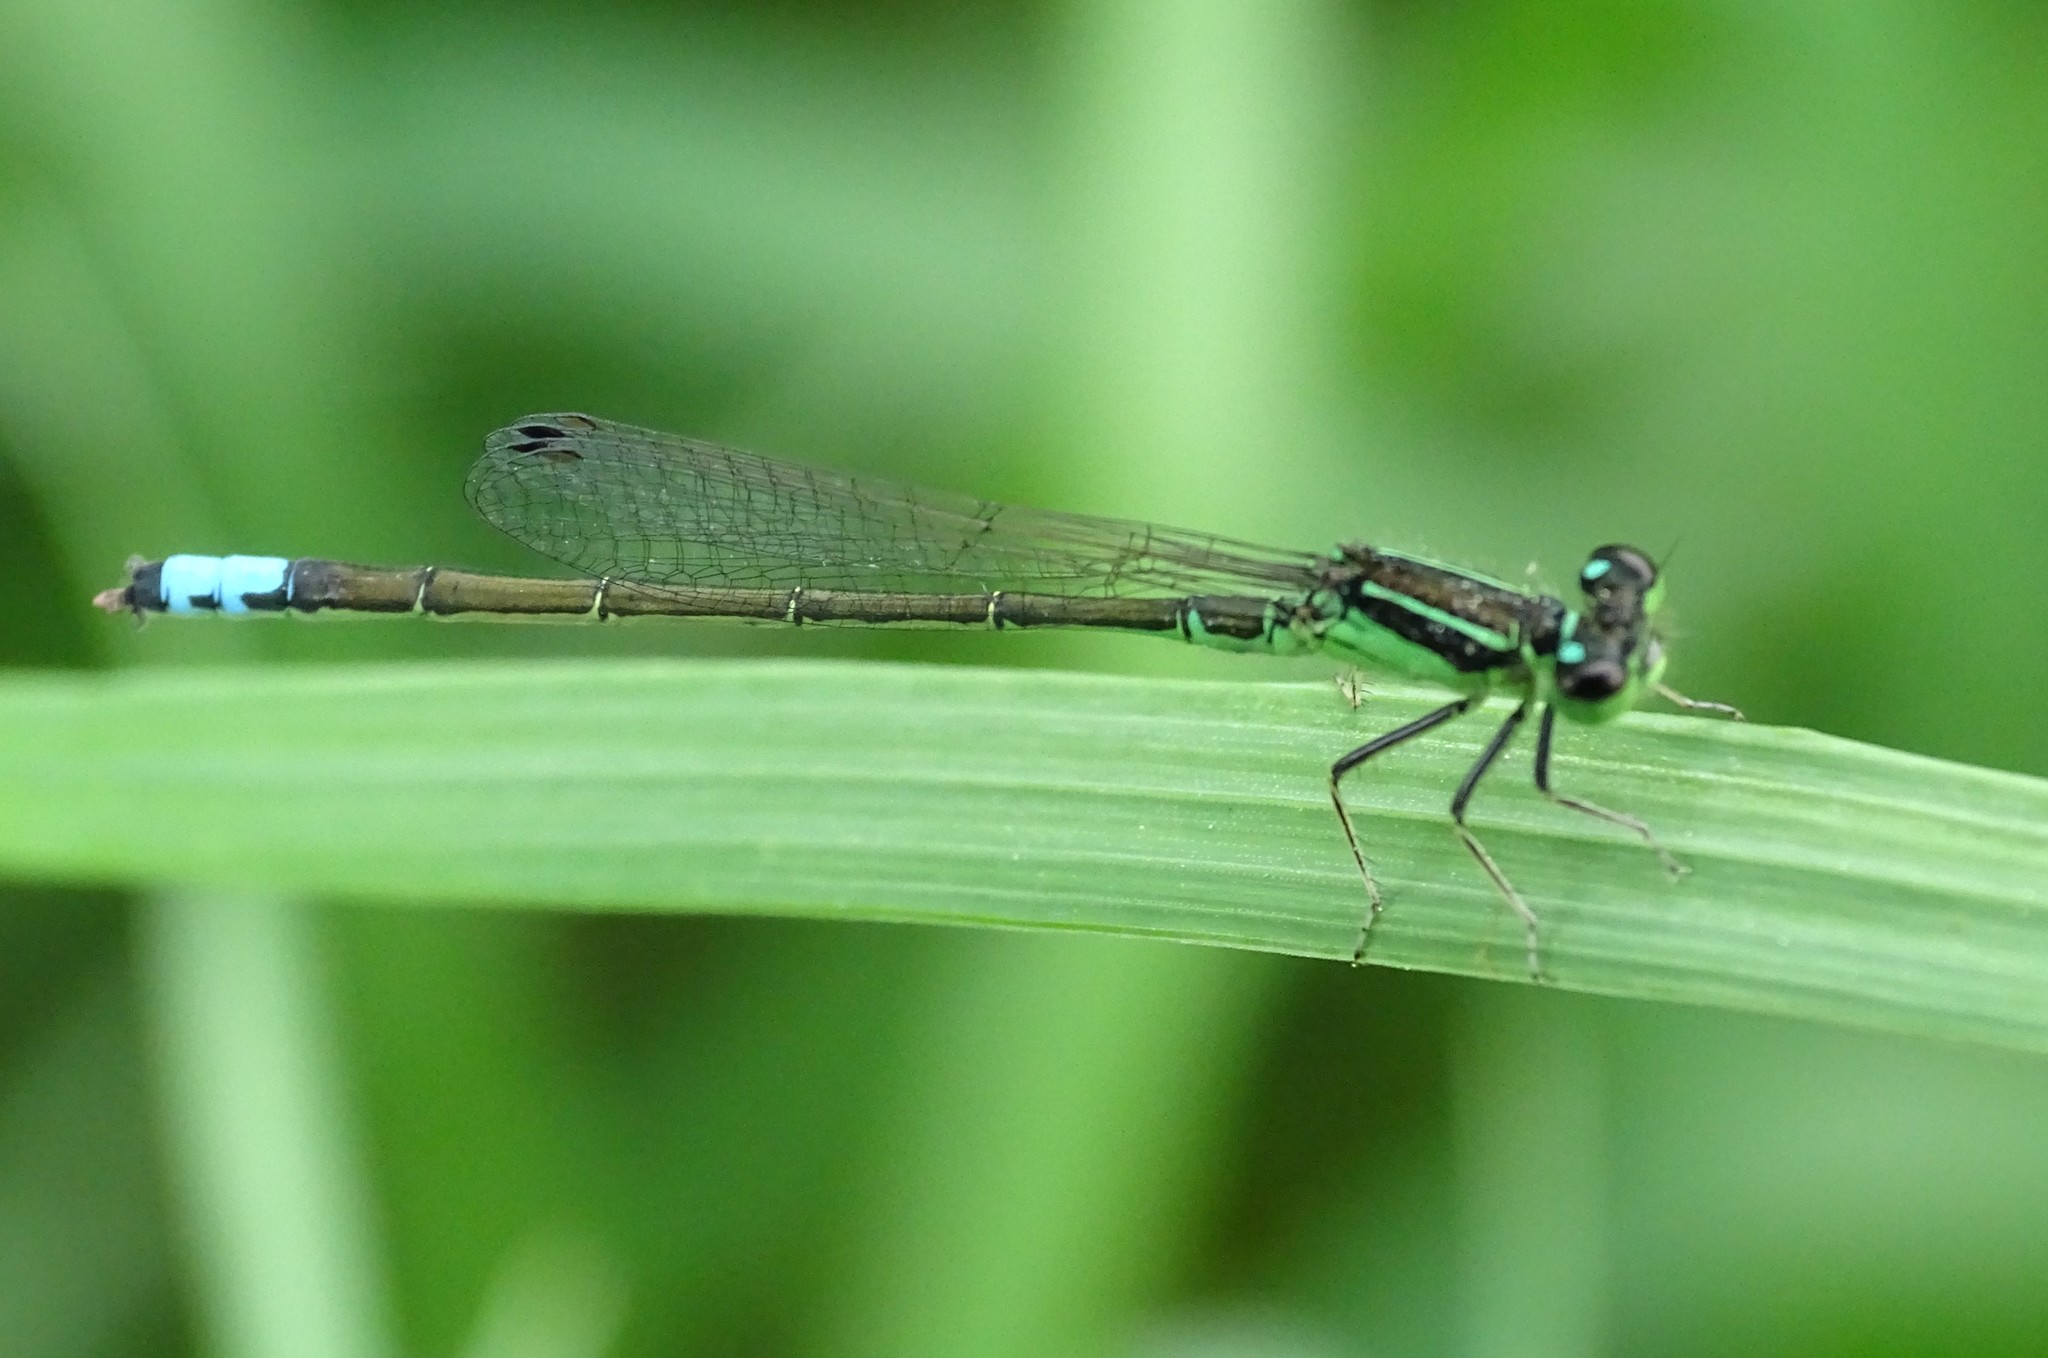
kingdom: Animalia
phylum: Arthropoda
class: Insecta
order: Odonata
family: Coenagrionidae
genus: Ischnura
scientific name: Ischnura verticalis
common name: Eastern forktail
